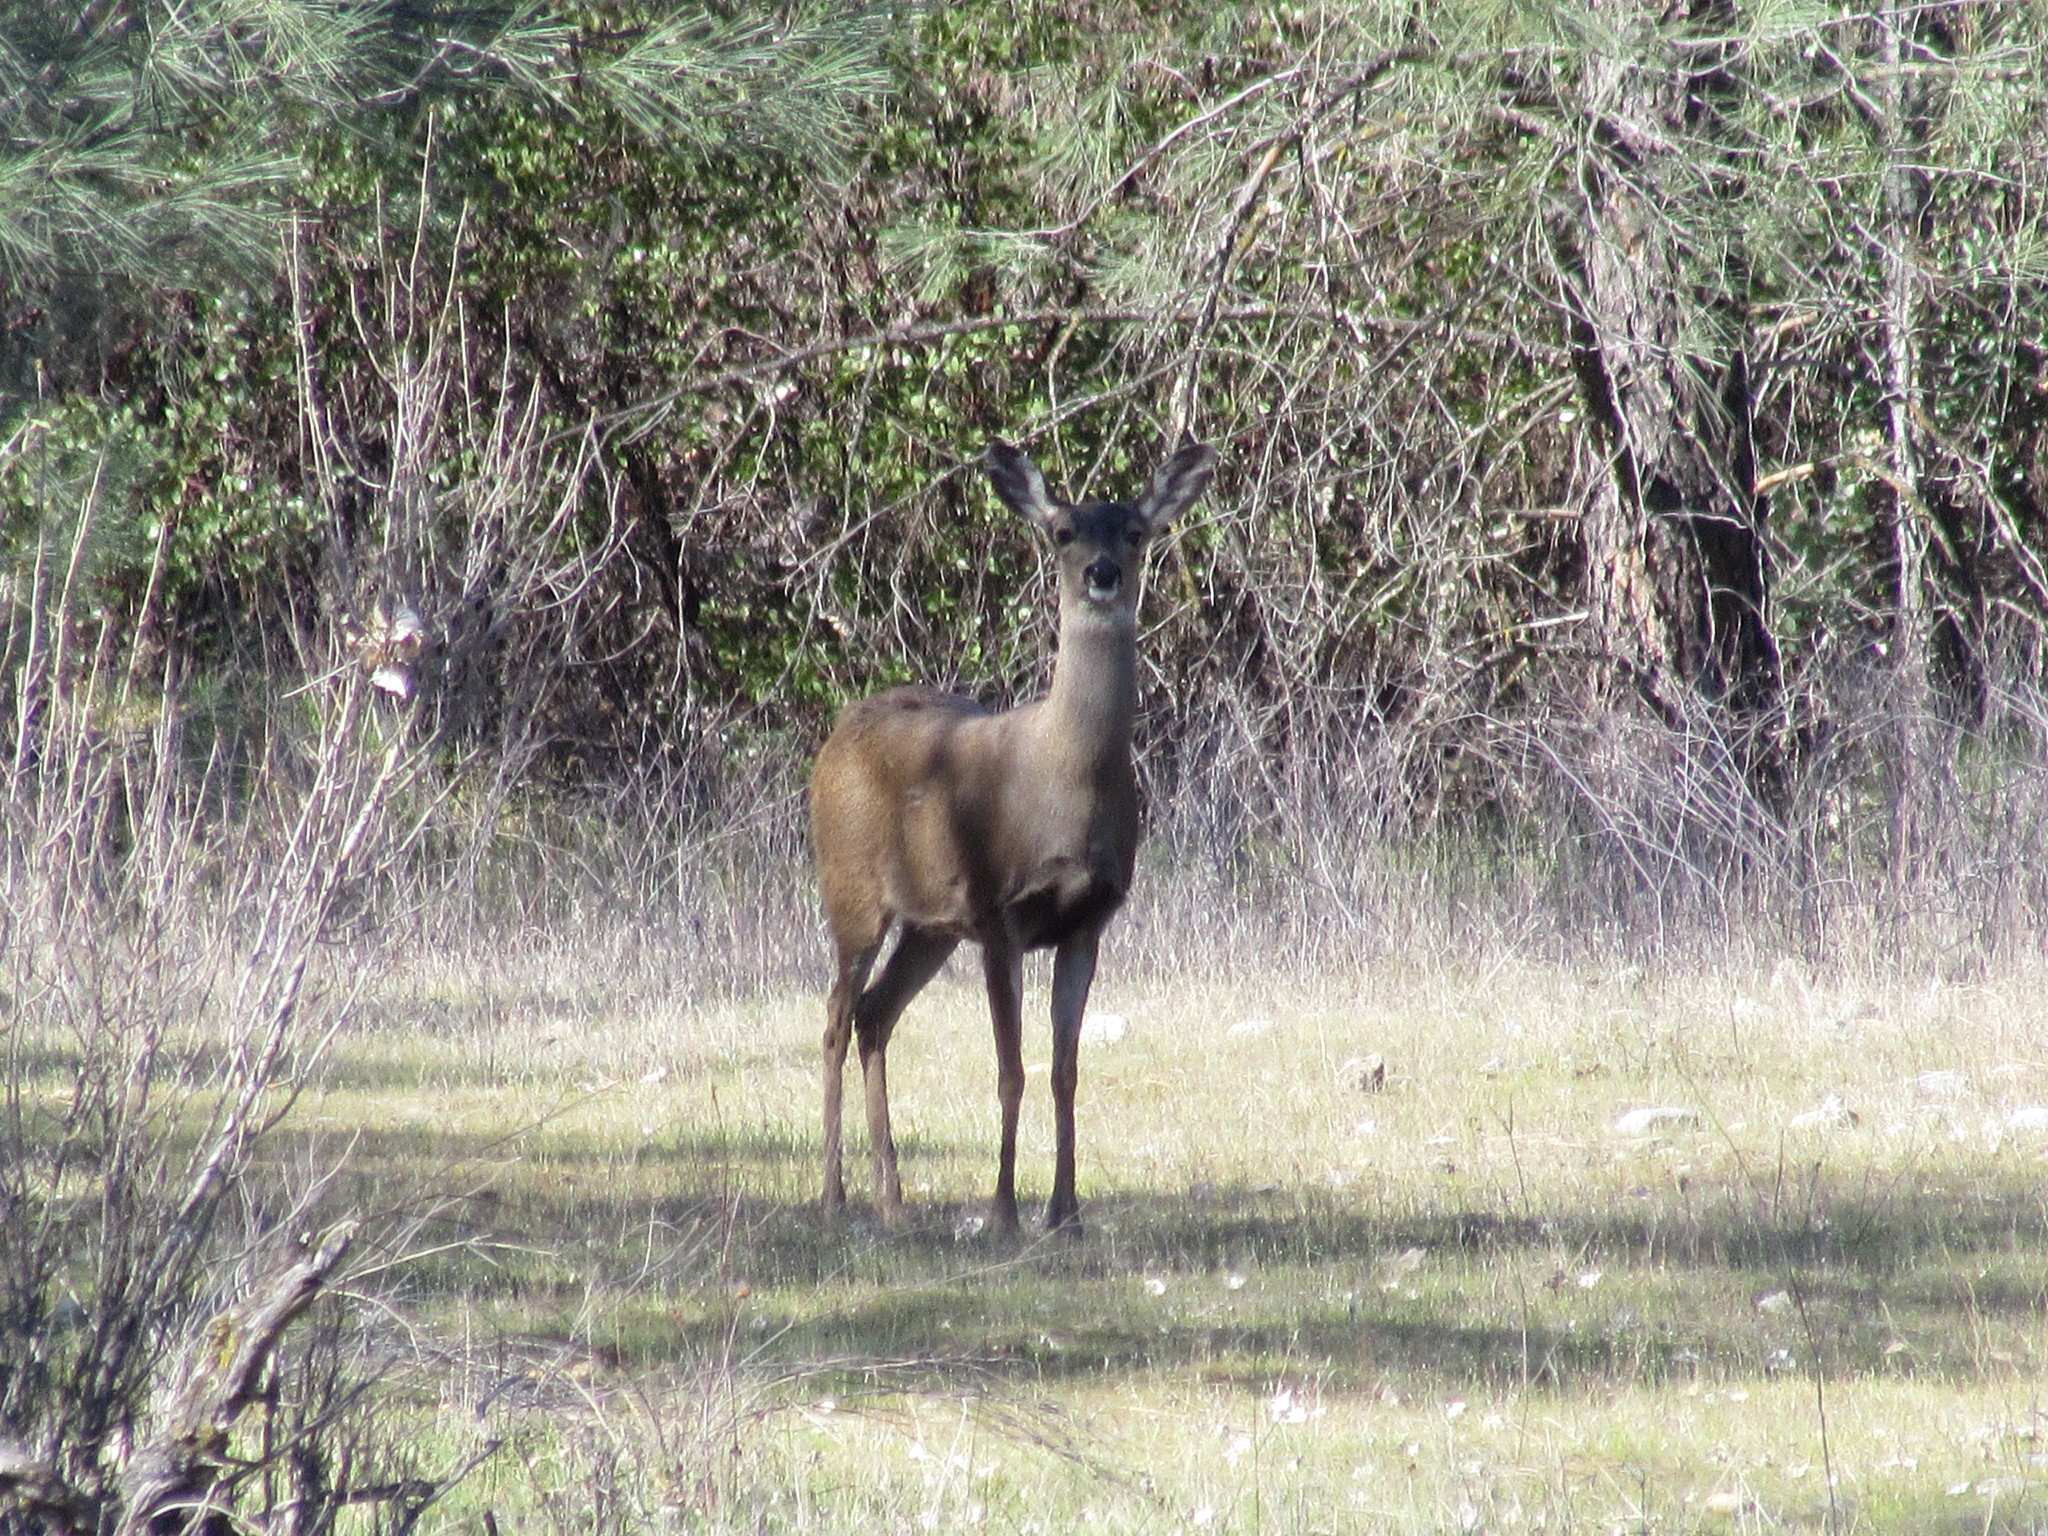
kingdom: Animalia
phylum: Chordata
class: Mammalia
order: Artiodactyla
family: Cervidae
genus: Odocoileus
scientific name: Odocoileus hemionus
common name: Mule deer
